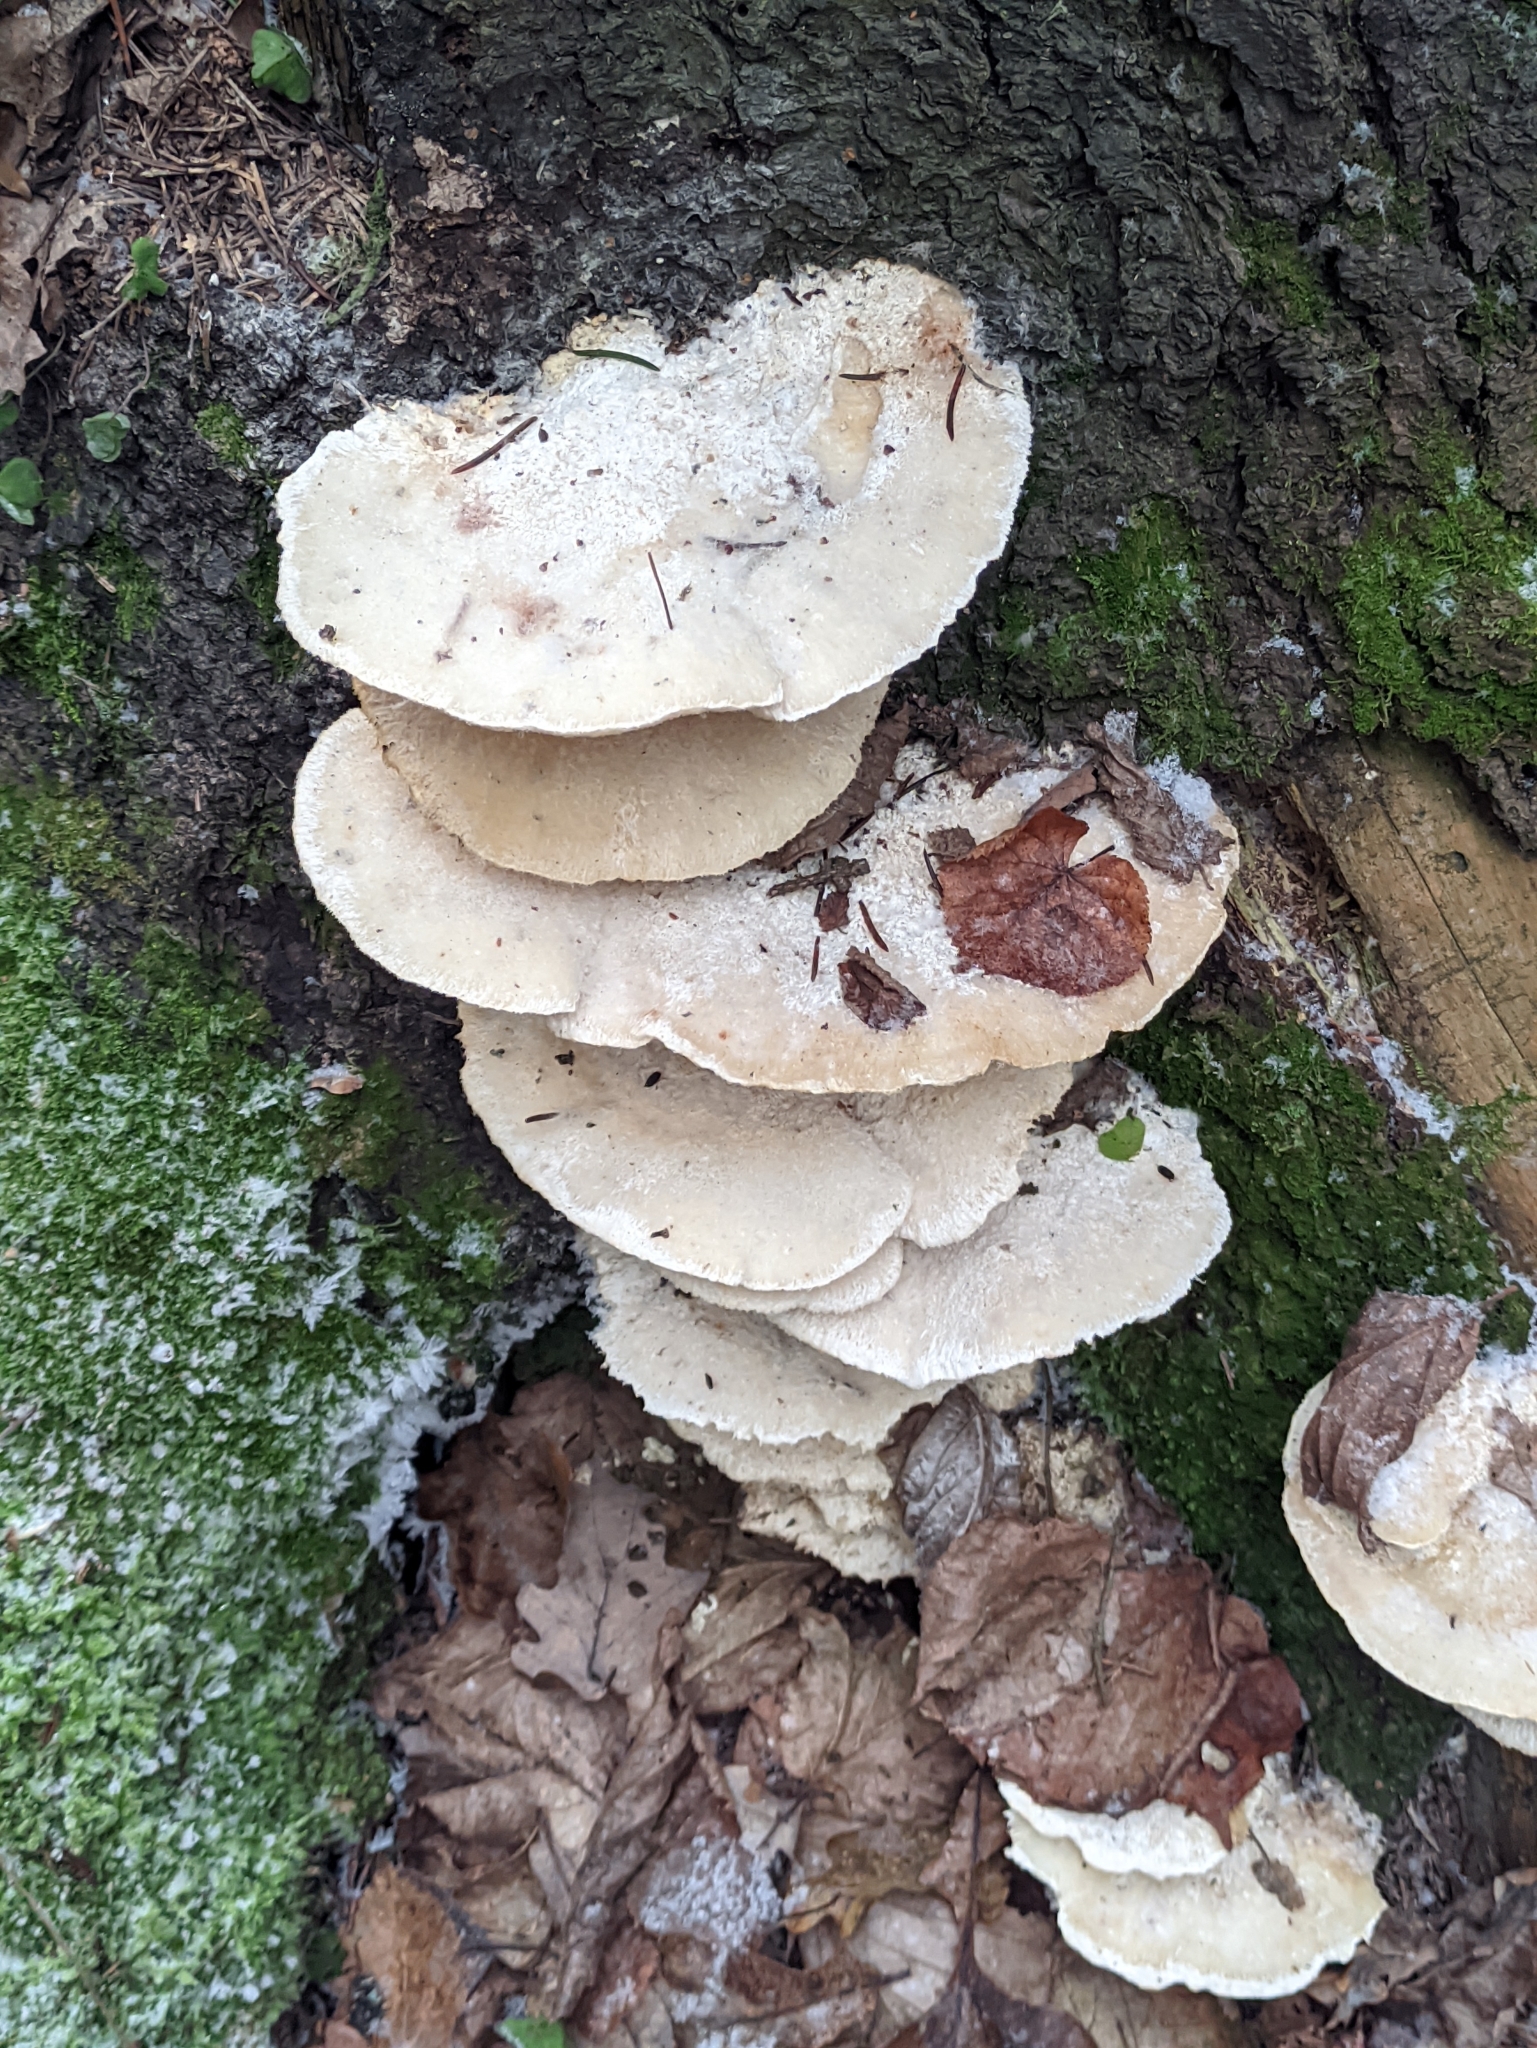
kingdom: Fungi
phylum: Basidiomycota
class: Agaricomycetes
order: Polyporales
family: Fomitopsidaceae
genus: Climacocystis
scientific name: Climacocystis borealis
